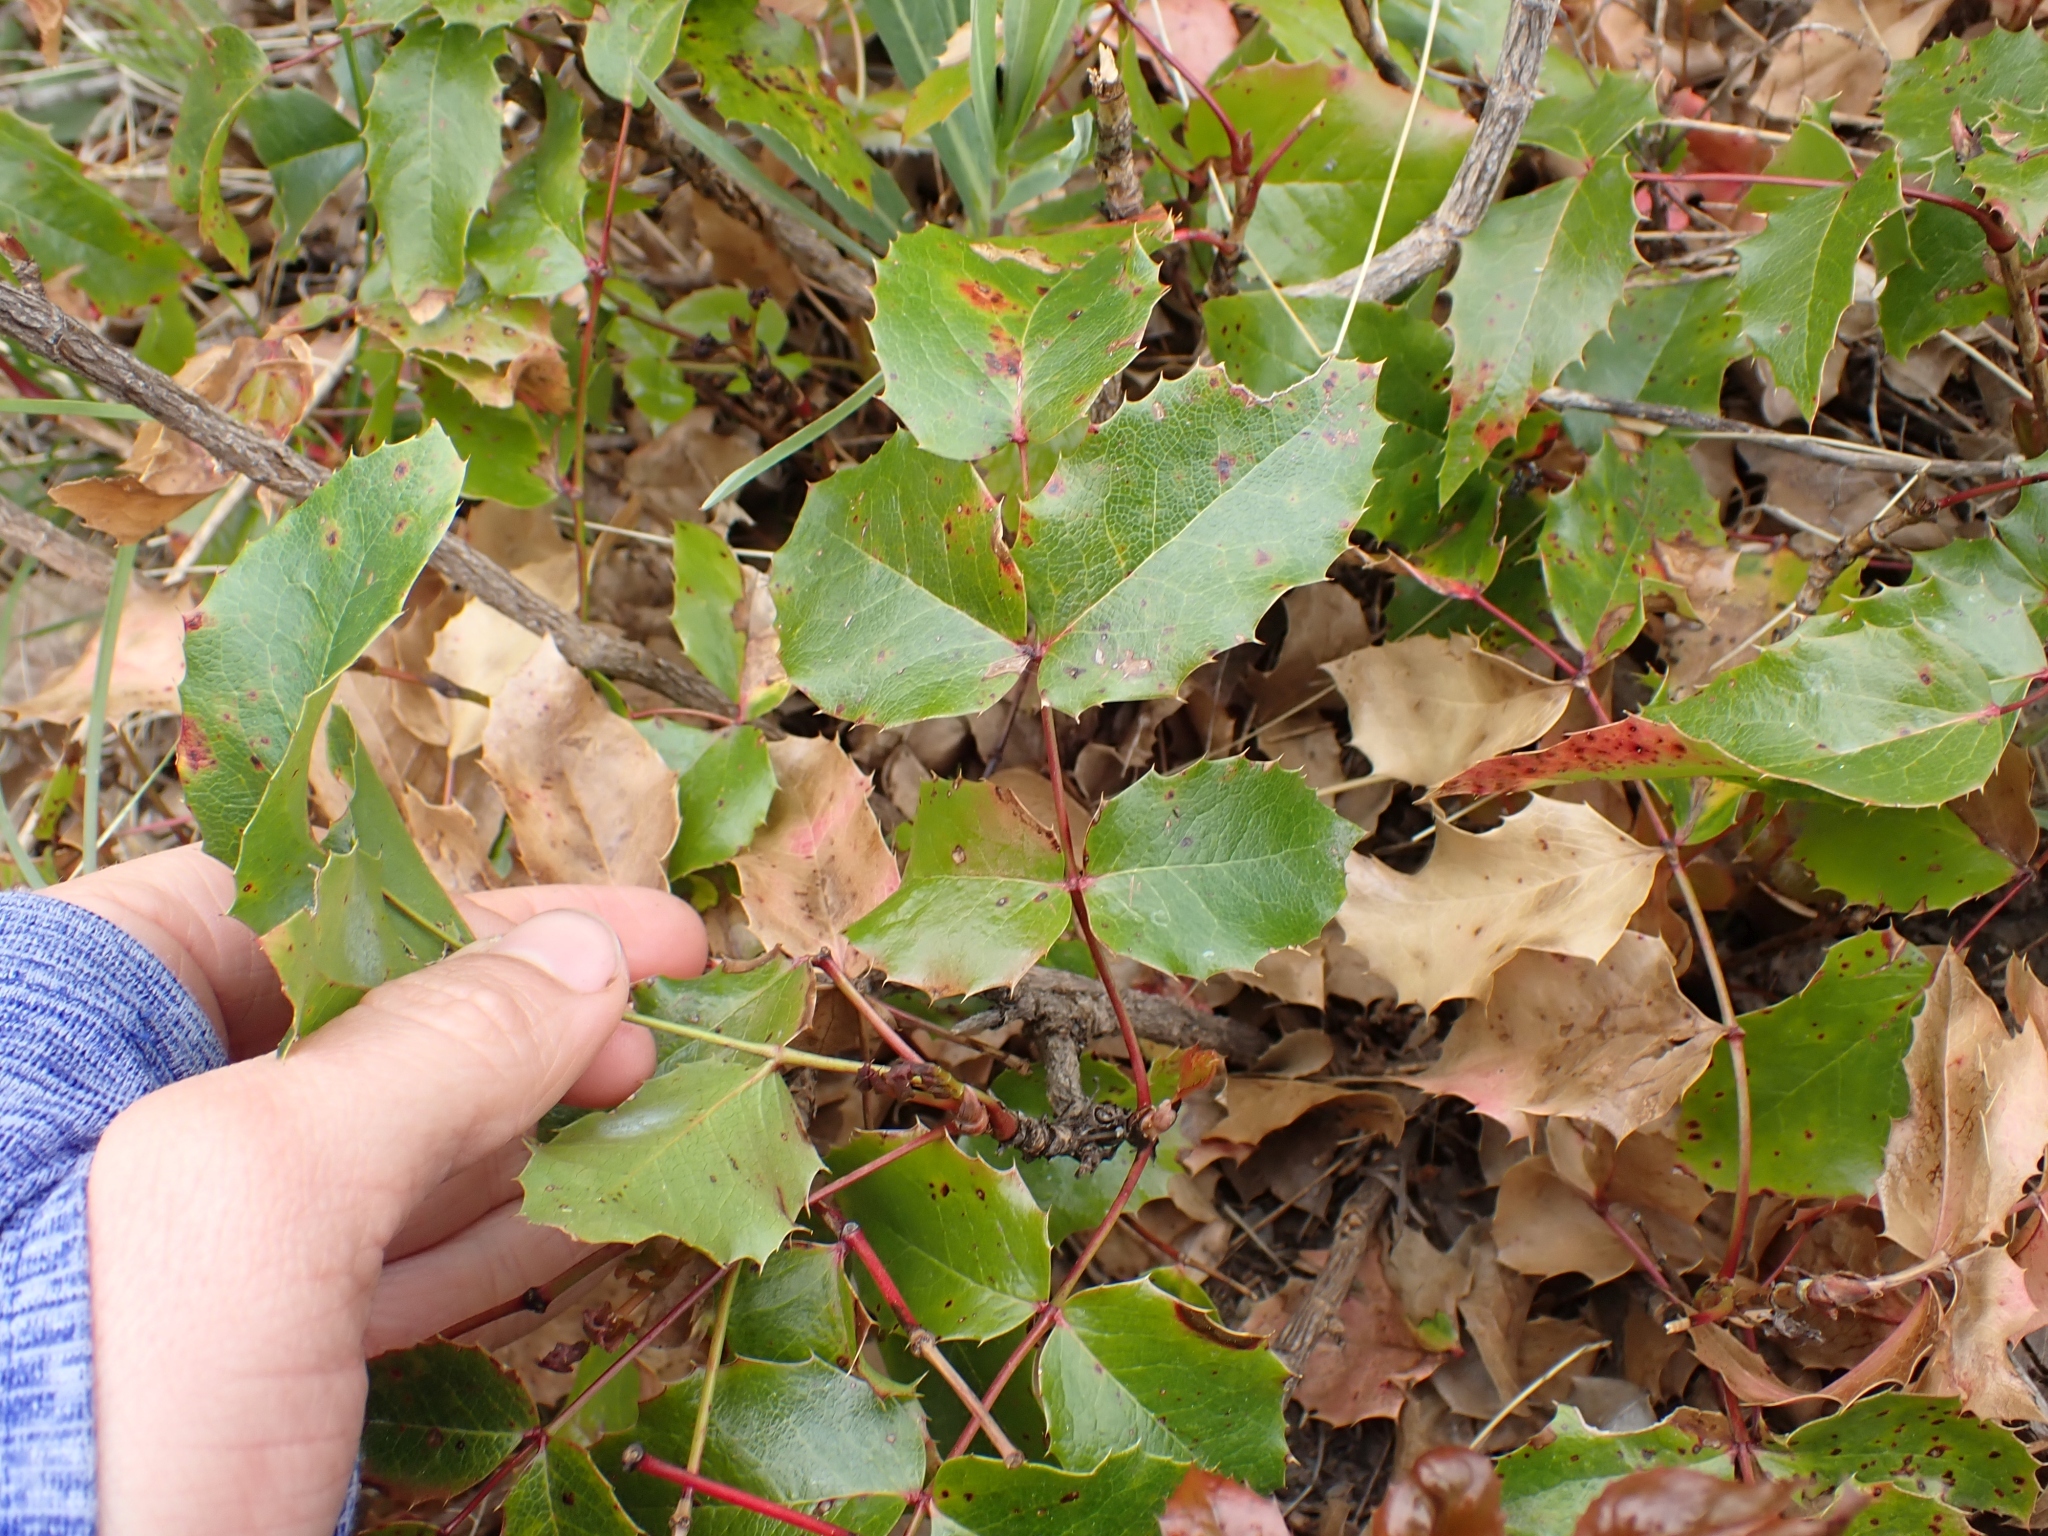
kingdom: Plantae
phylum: Tracheophyta
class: Magnoliopsida
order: Ranunculales
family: Berberidaceae
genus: Mahonia
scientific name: Mahonia aquifolium
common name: Oregon-grape
